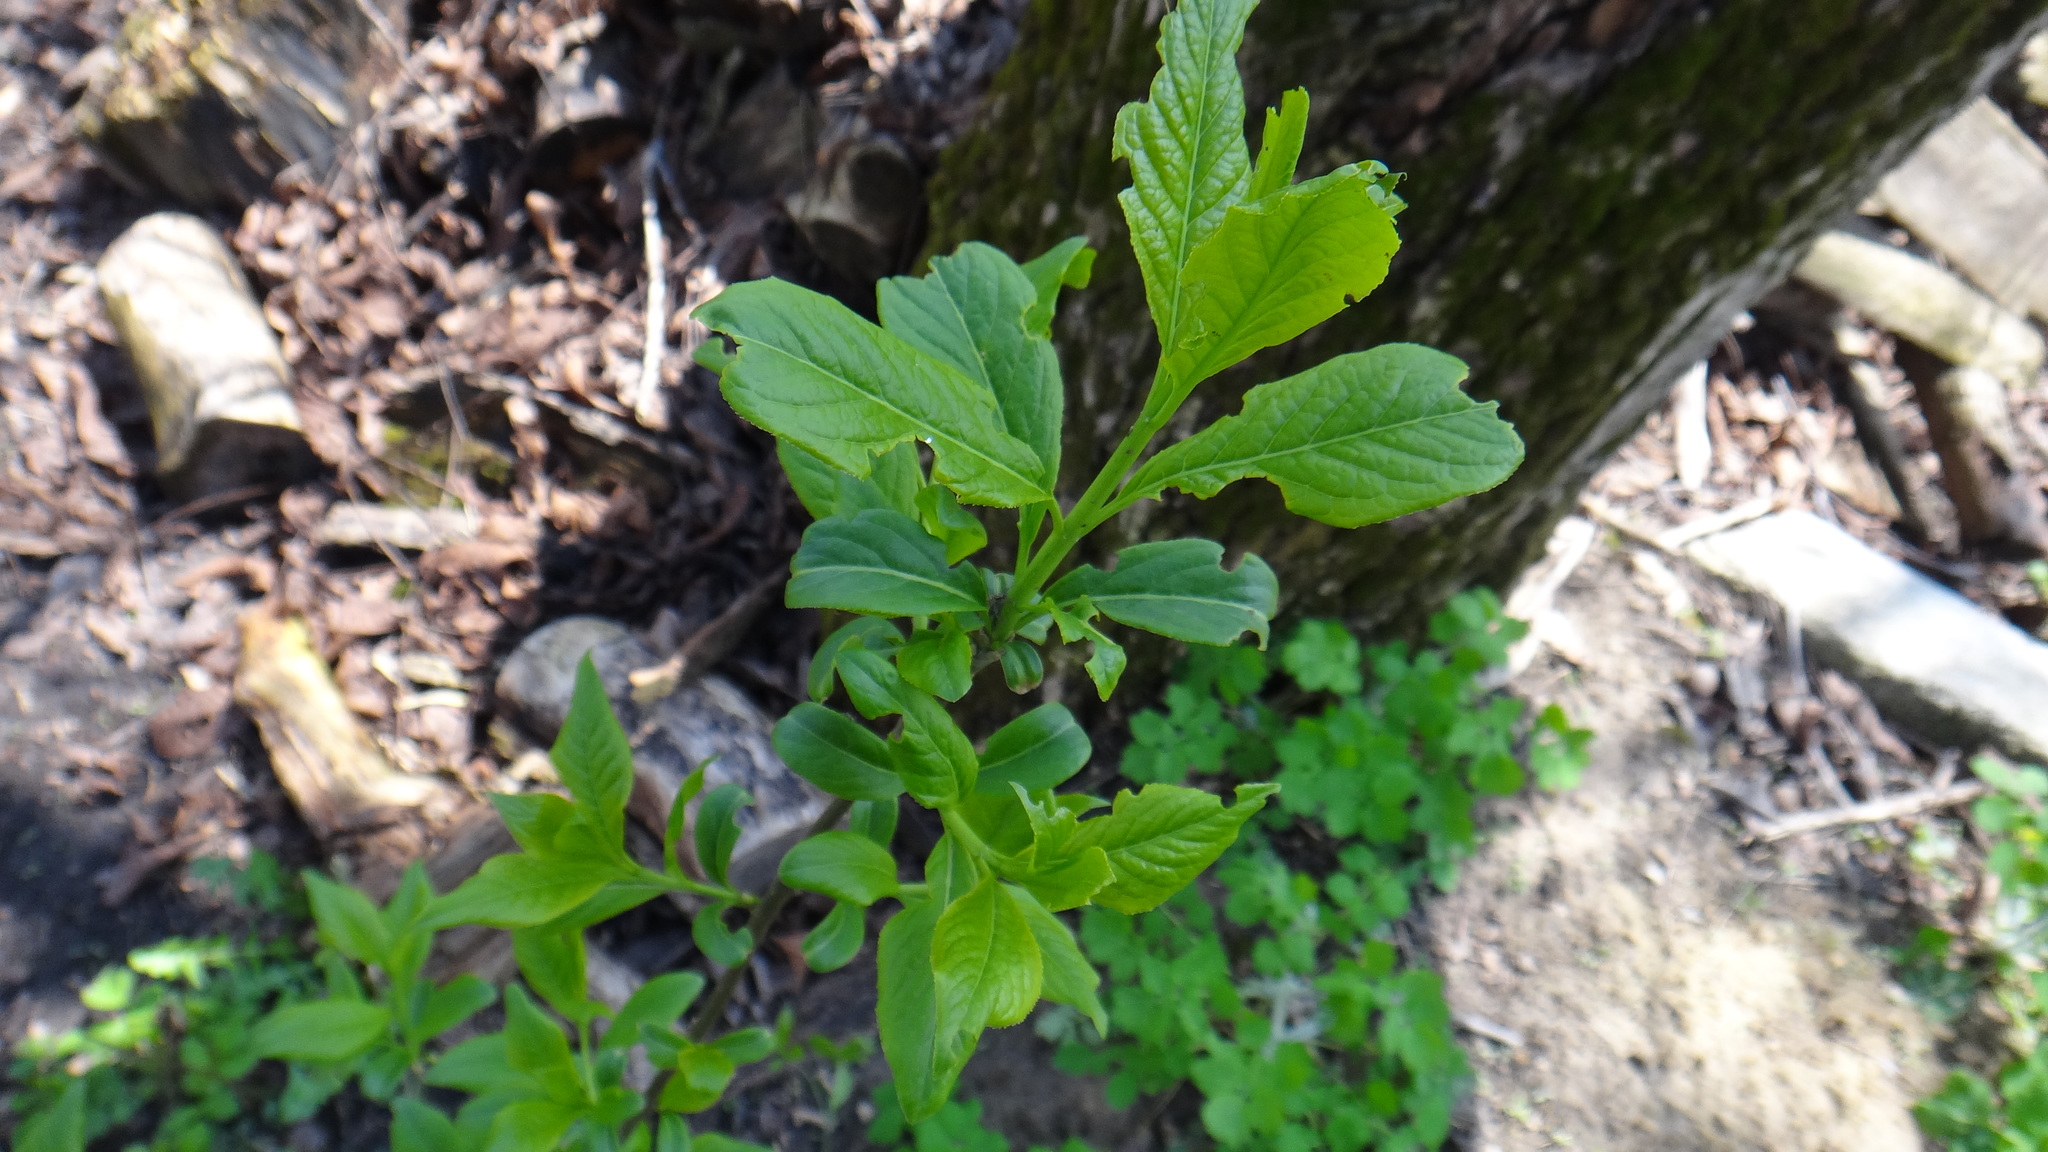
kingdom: Plantae
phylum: Tracheophyta
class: Magnoliopsida
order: Celastrales
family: Celastraceae
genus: Euonymus
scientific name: Euonymus europaeus
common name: Spindle
